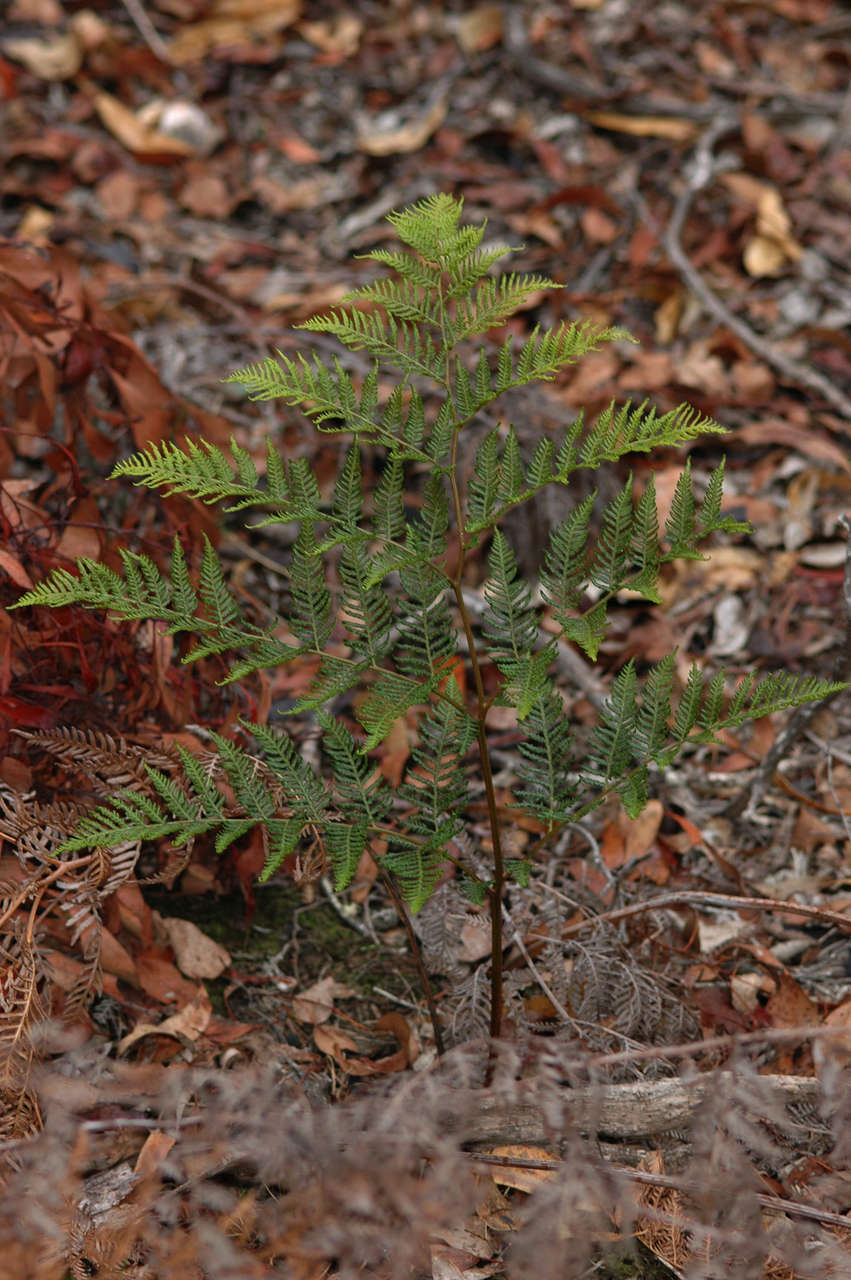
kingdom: Plantae
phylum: Tracheophyta
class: Polypodiopsida
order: Polypodiales
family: Dennstaedtiaceae
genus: Pteridium
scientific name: Pteridium esculentum
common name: Bracken fern
